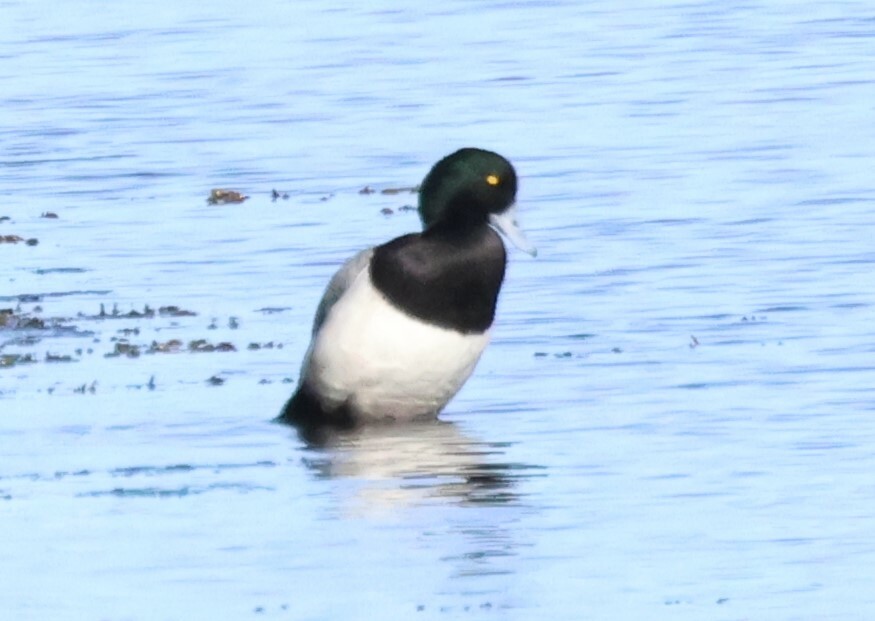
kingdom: Animalia
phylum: Chordata
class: Aves
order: Anseriformes
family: Anatidae
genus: Aythya
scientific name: Aythya marila
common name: Greater scaup
